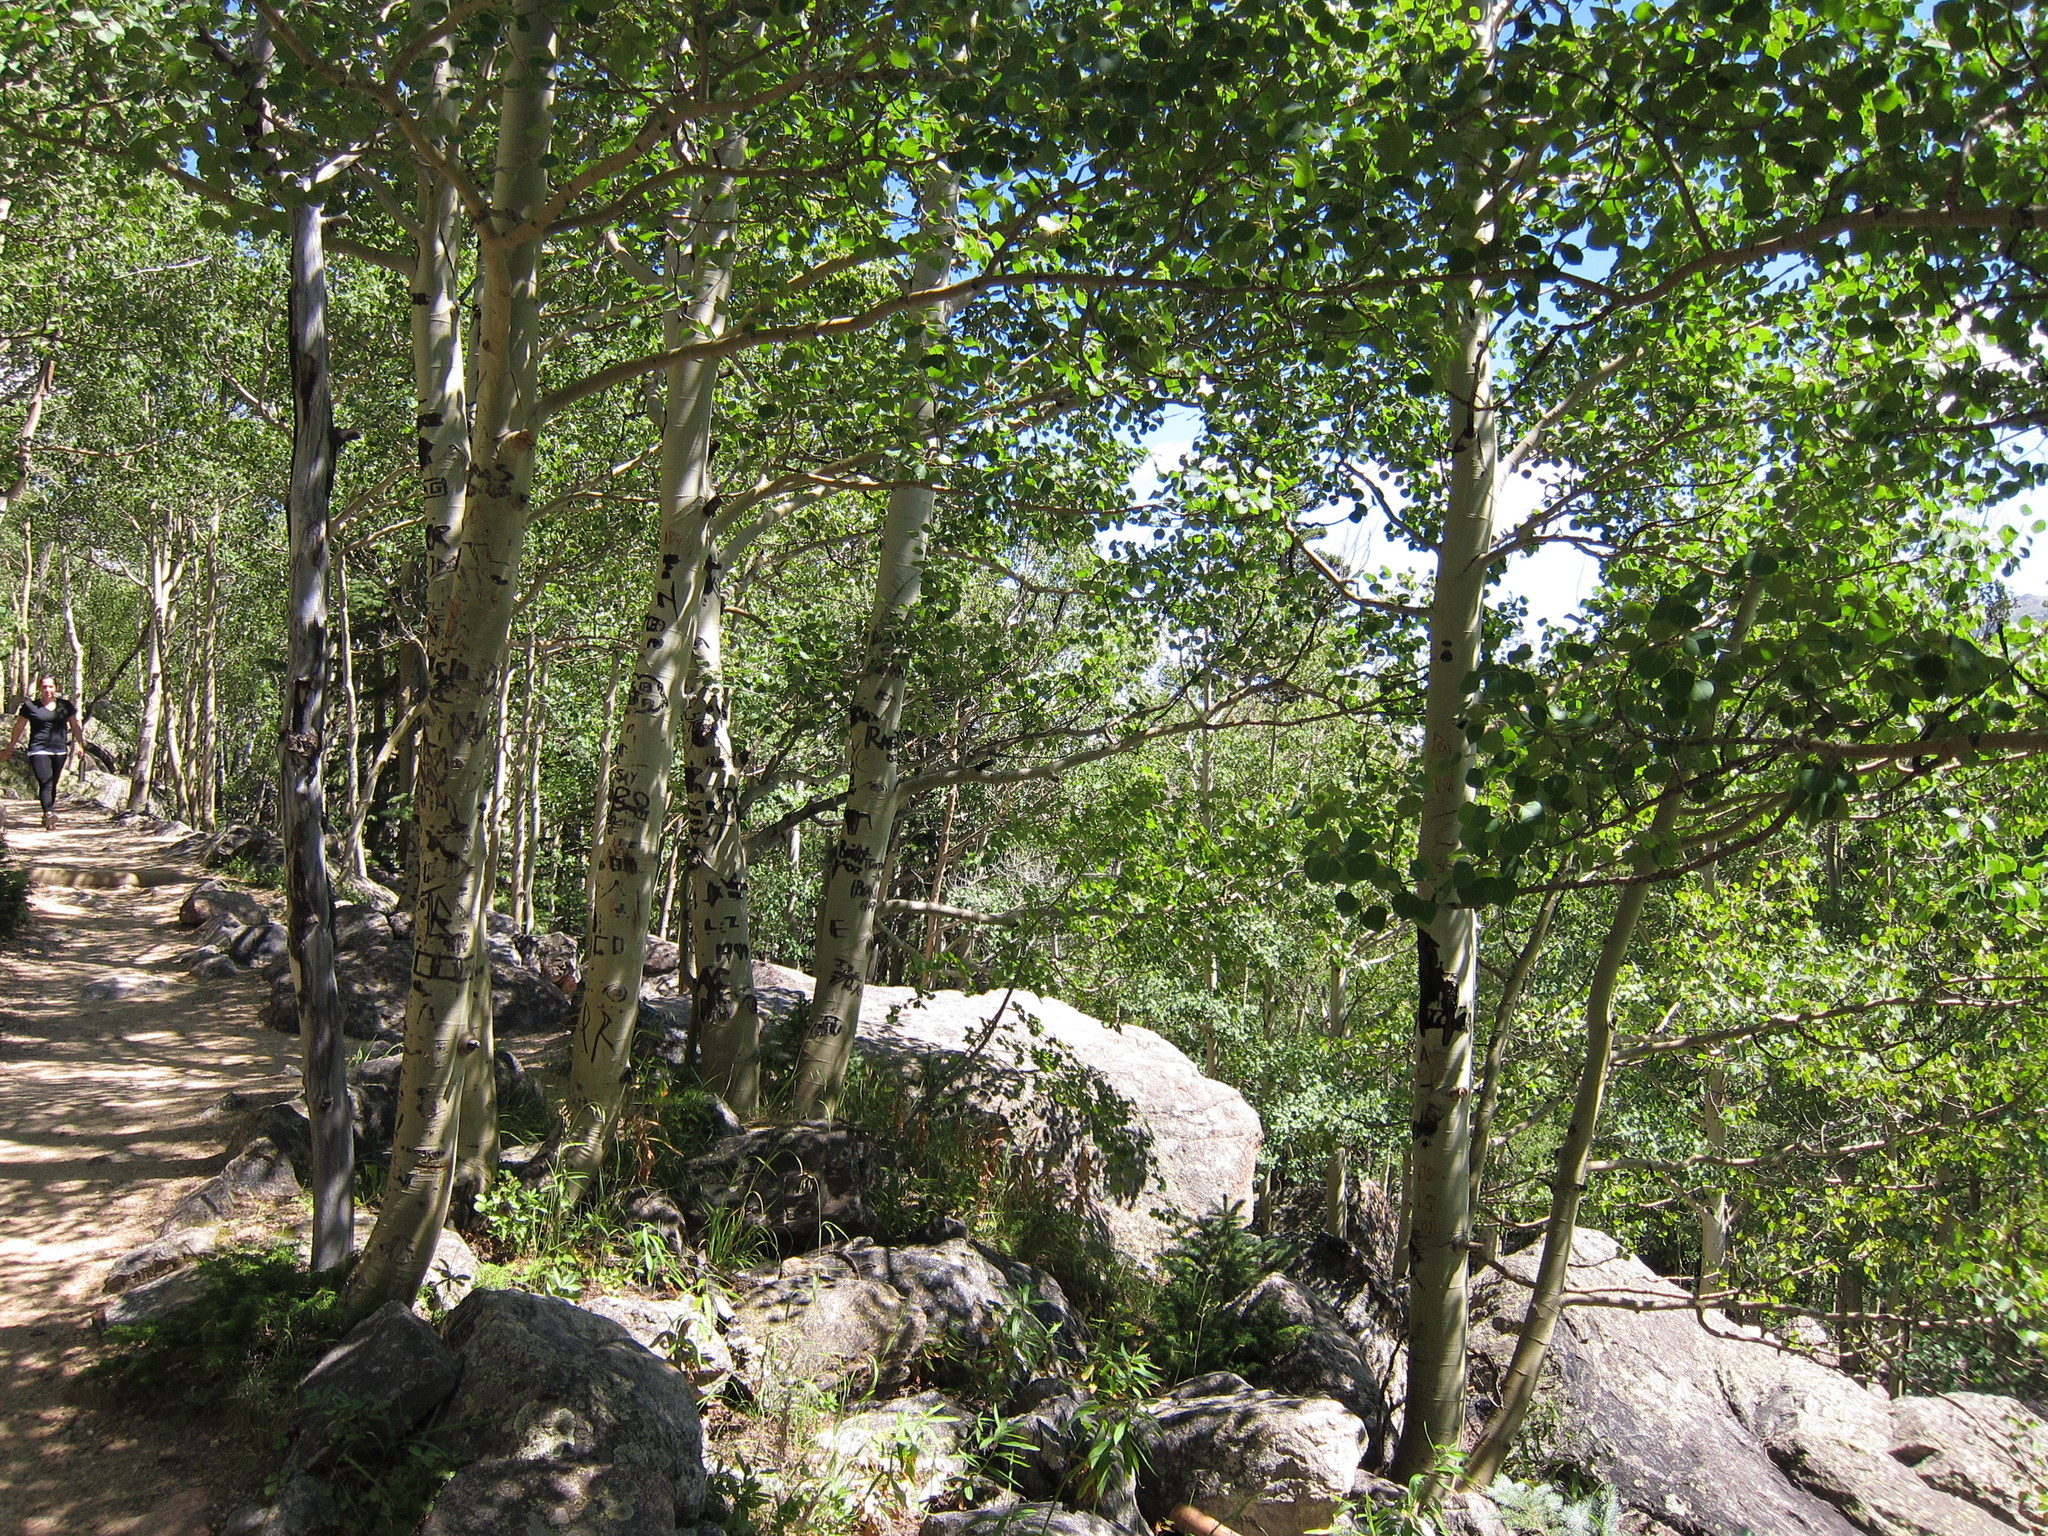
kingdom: Plantae
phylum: Tracheophyta
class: Magnoliopsida
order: Malpighiales
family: Salicaceae
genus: Populus
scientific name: Populus tremuloides
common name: Quaking aspen
